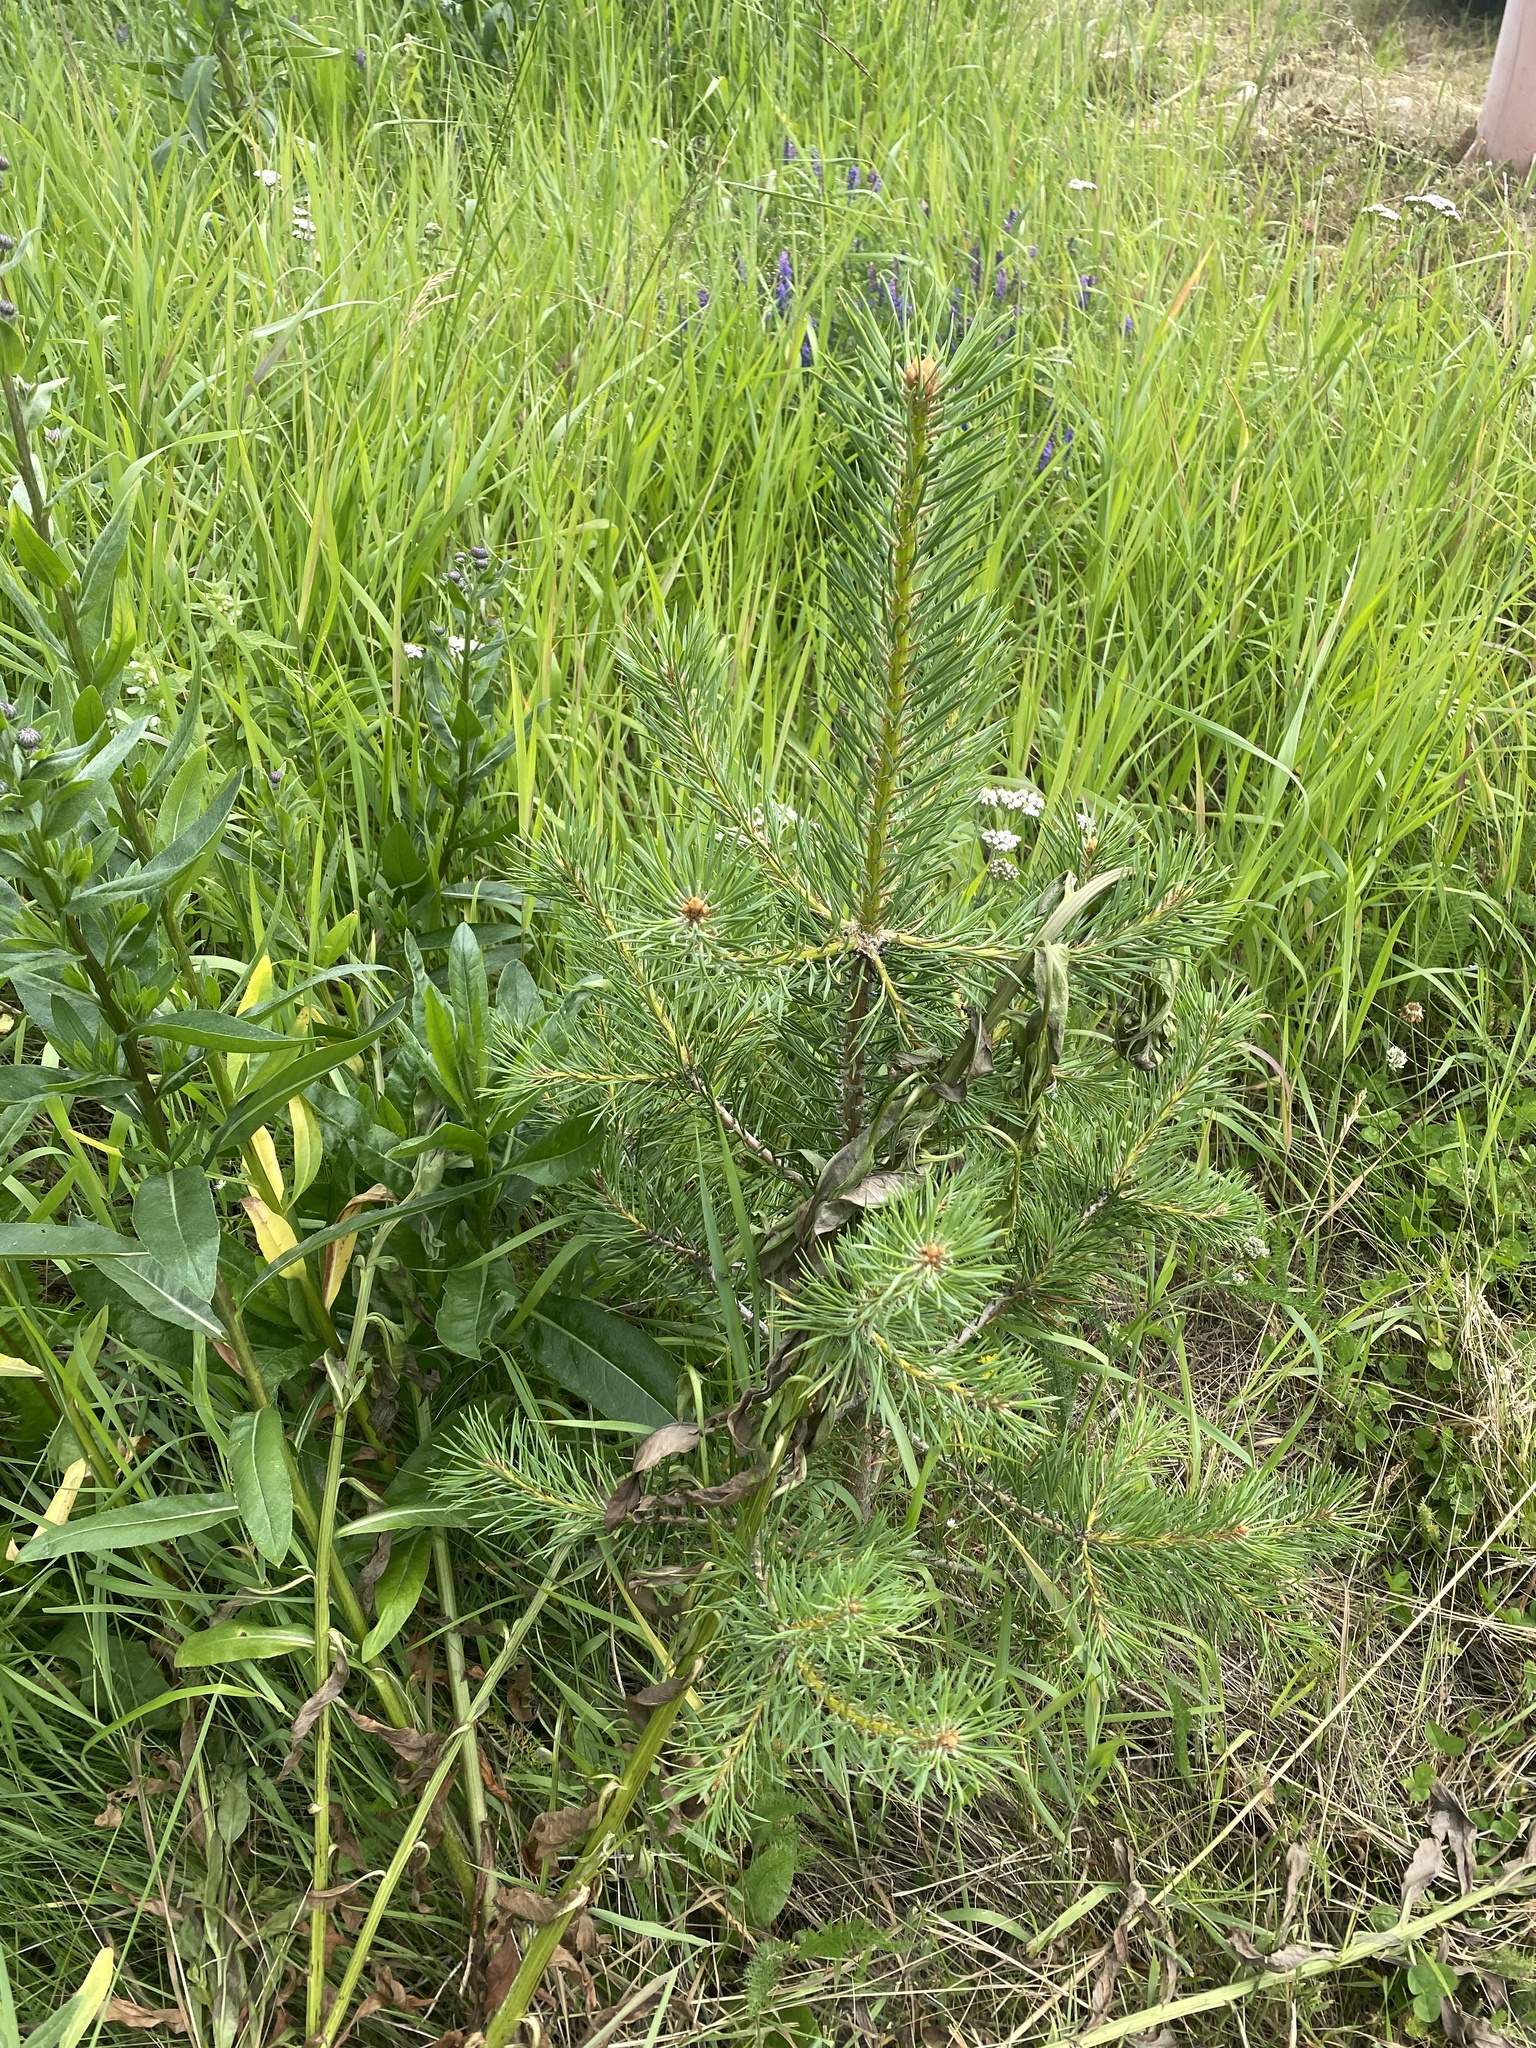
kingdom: Plantae
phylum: Tracheophyta
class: Pinopsida
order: Pinales
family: Pinaceae
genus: Pinus
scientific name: Pinus sylvestris
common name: Scots pine
